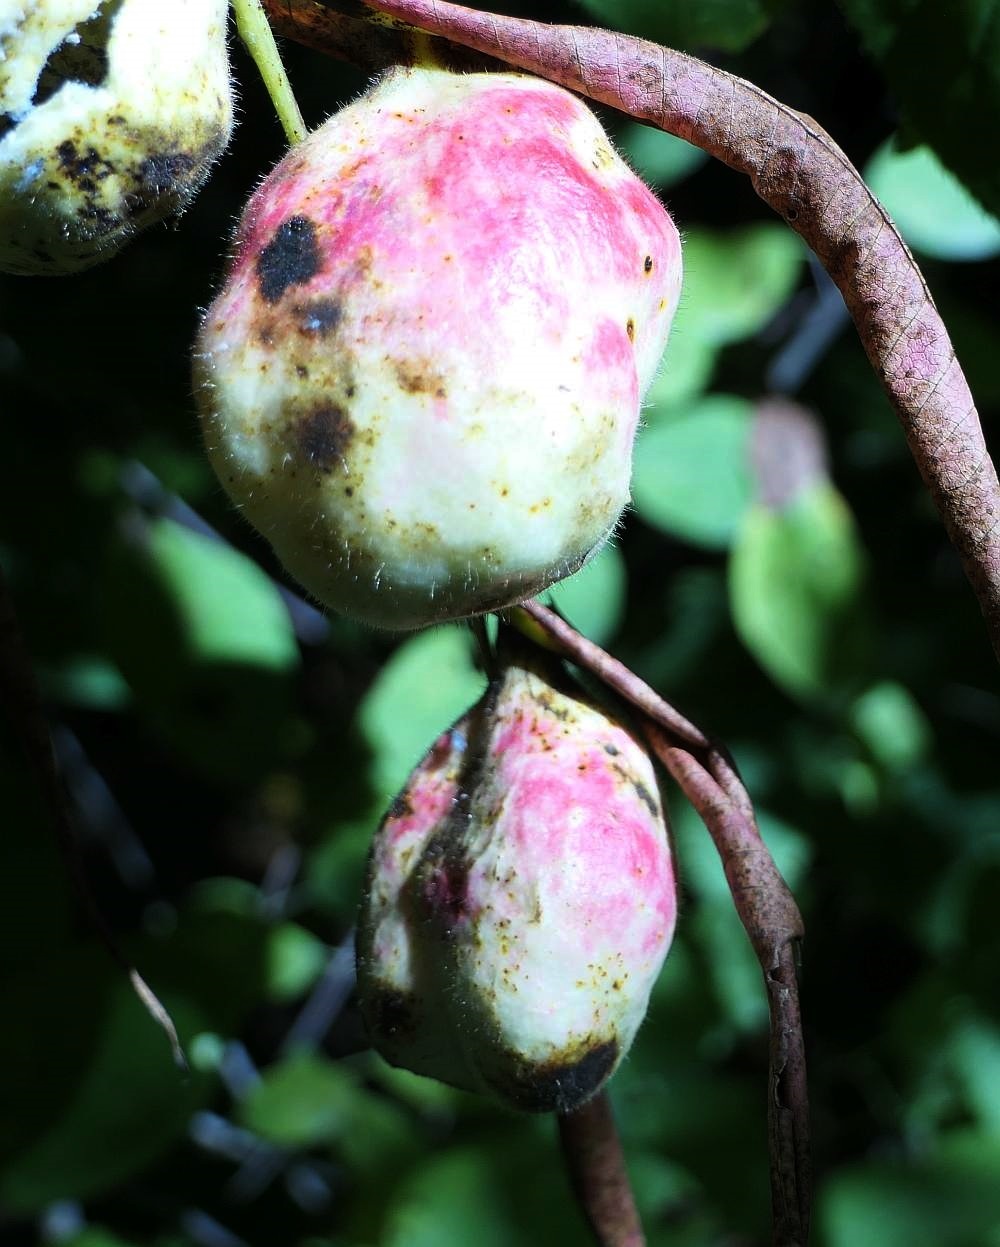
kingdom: Animalia
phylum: Arthropoda
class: Insecta
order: Hemiptera
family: Aphididae
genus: Melaphis
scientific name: Melaphis rhois
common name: Sumac gall aphid
